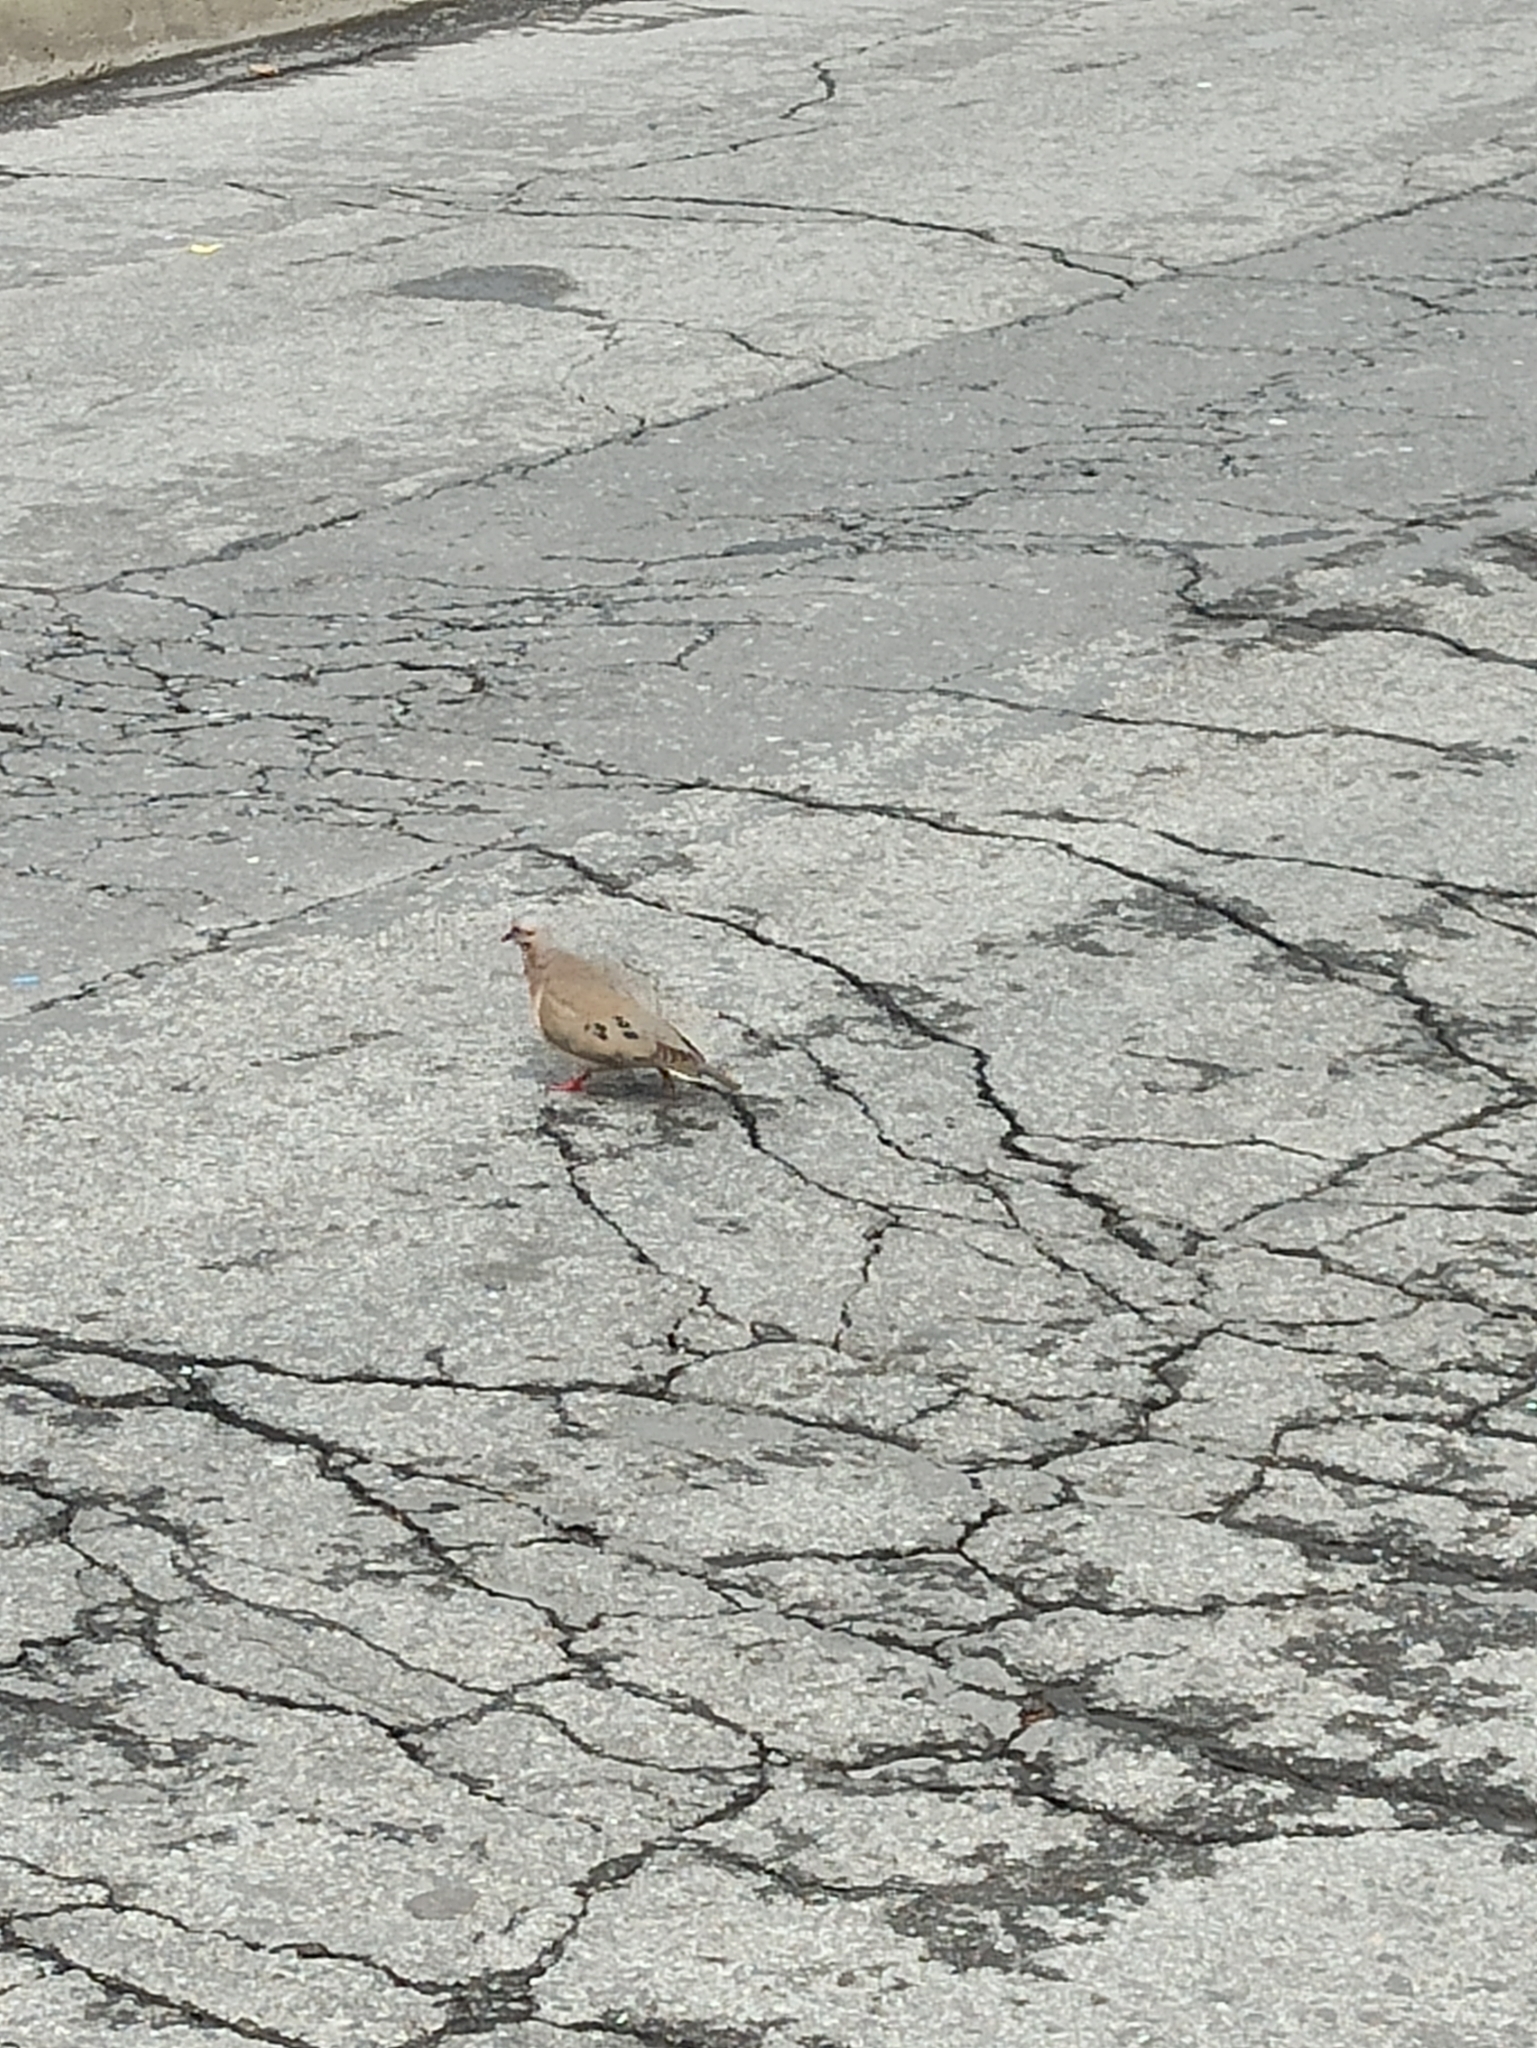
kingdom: Animalia
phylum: Chordata
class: Aves
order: Columbiformes
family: Columbidae
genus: Zenaida
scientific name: Zenaida auriculata
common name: Eared dove
